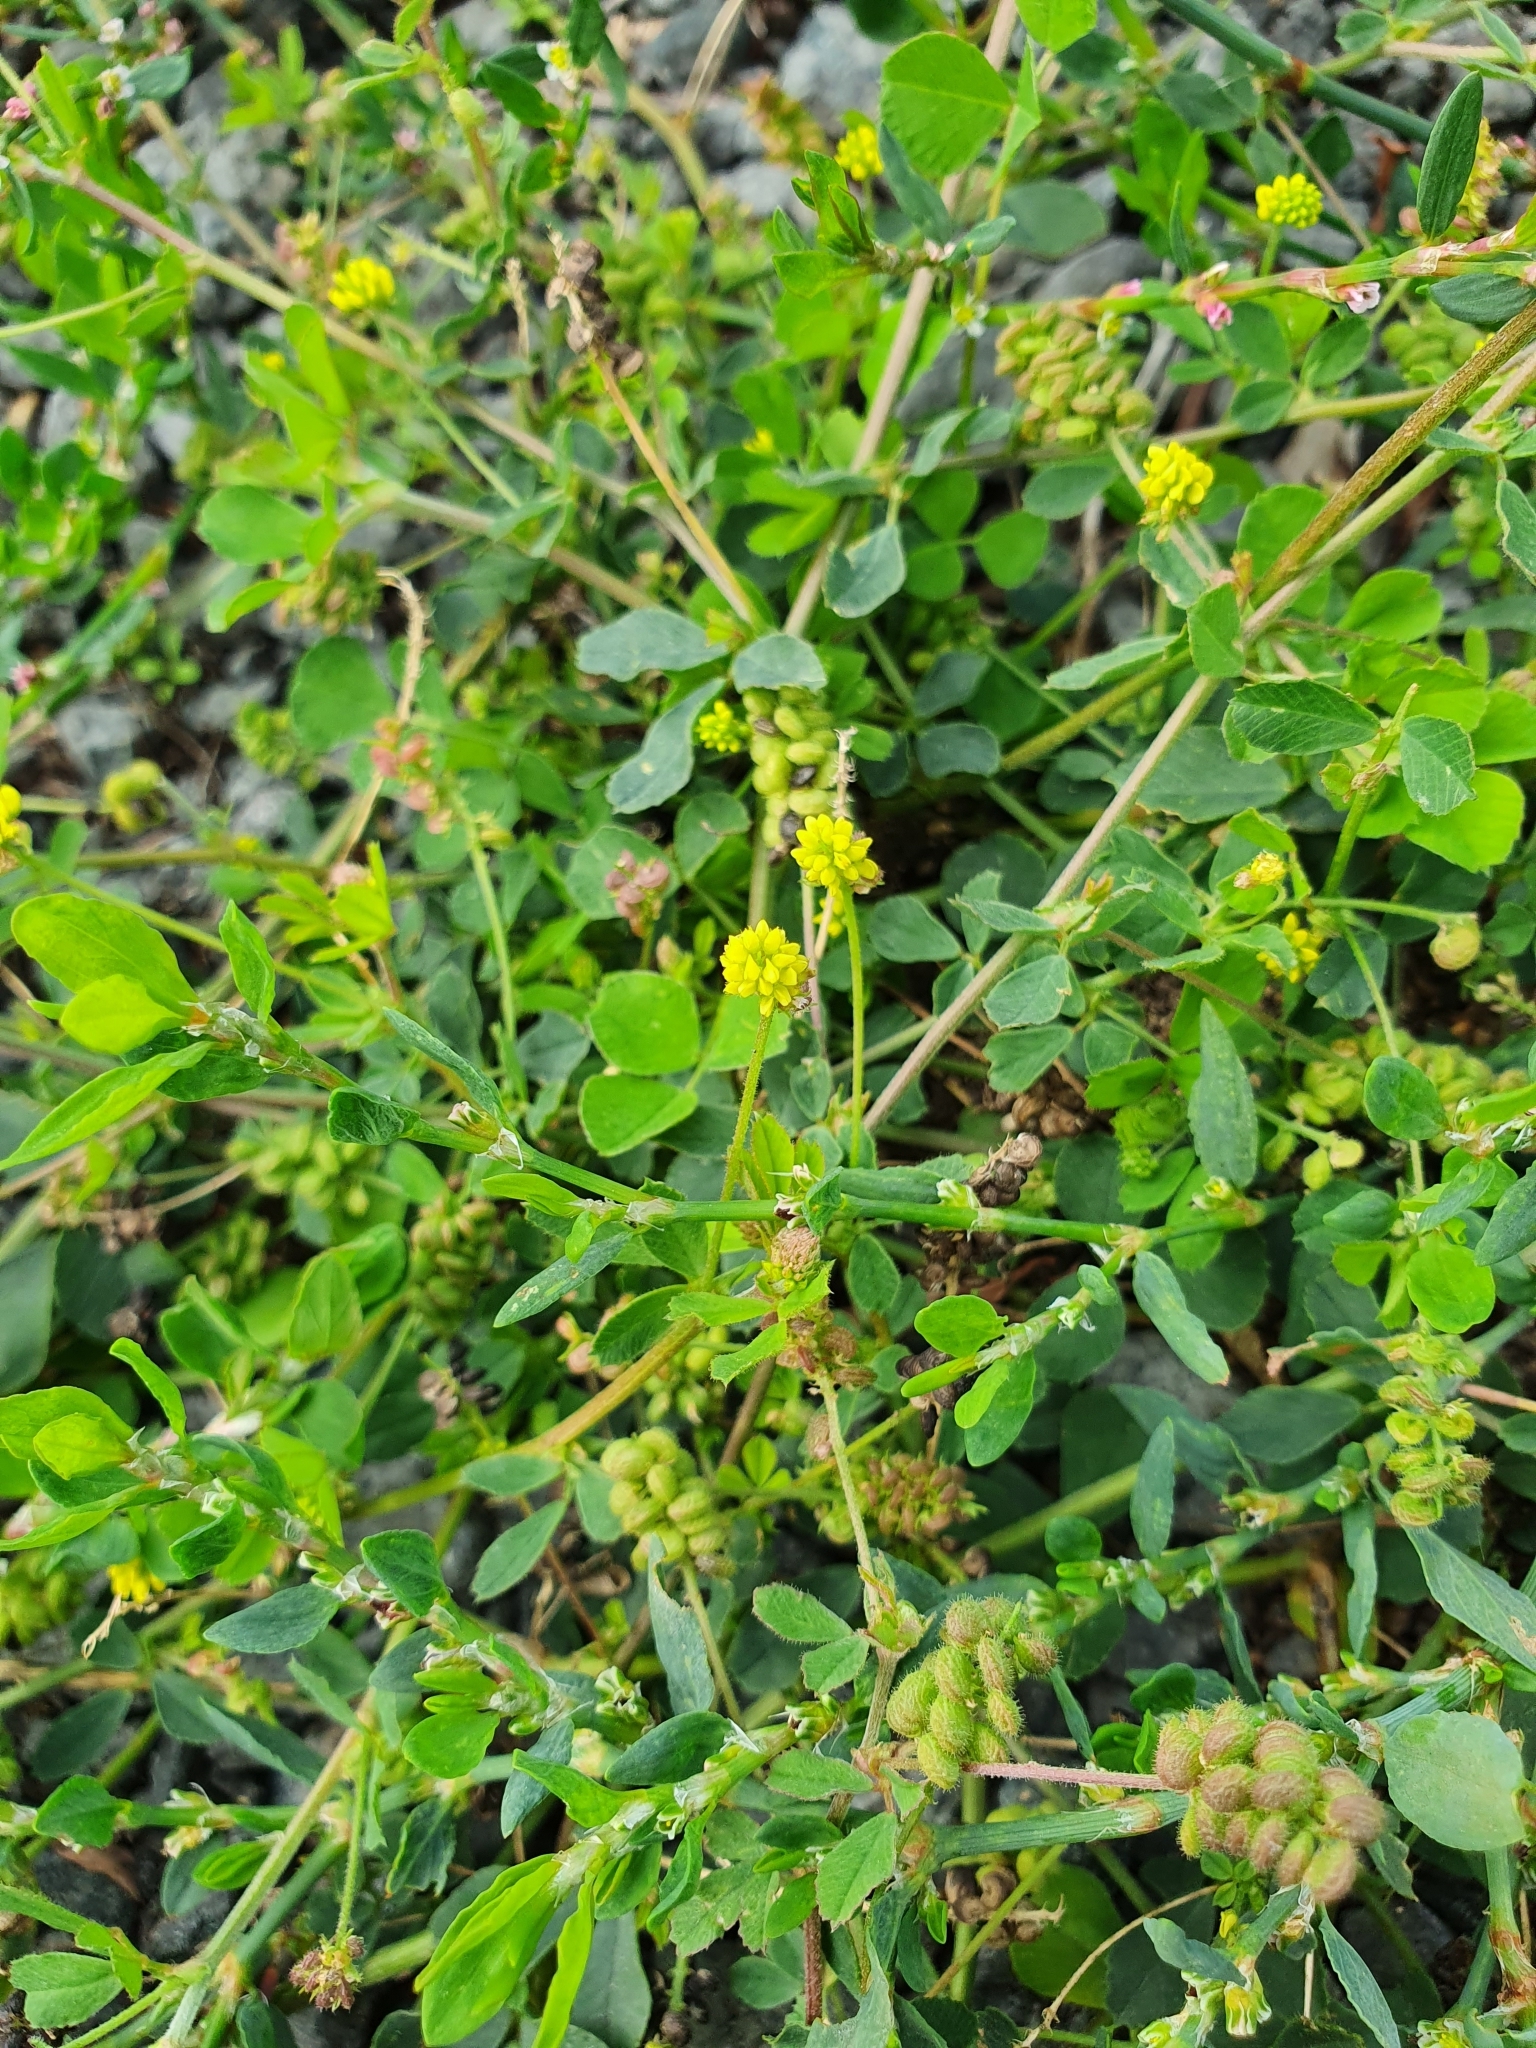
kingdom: Plantae
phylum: Tracheophyta
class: Magnoliopsida
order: Fabales
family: Fabaceae
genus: Medicago
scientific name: Medicago lupulina
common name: Black medick
